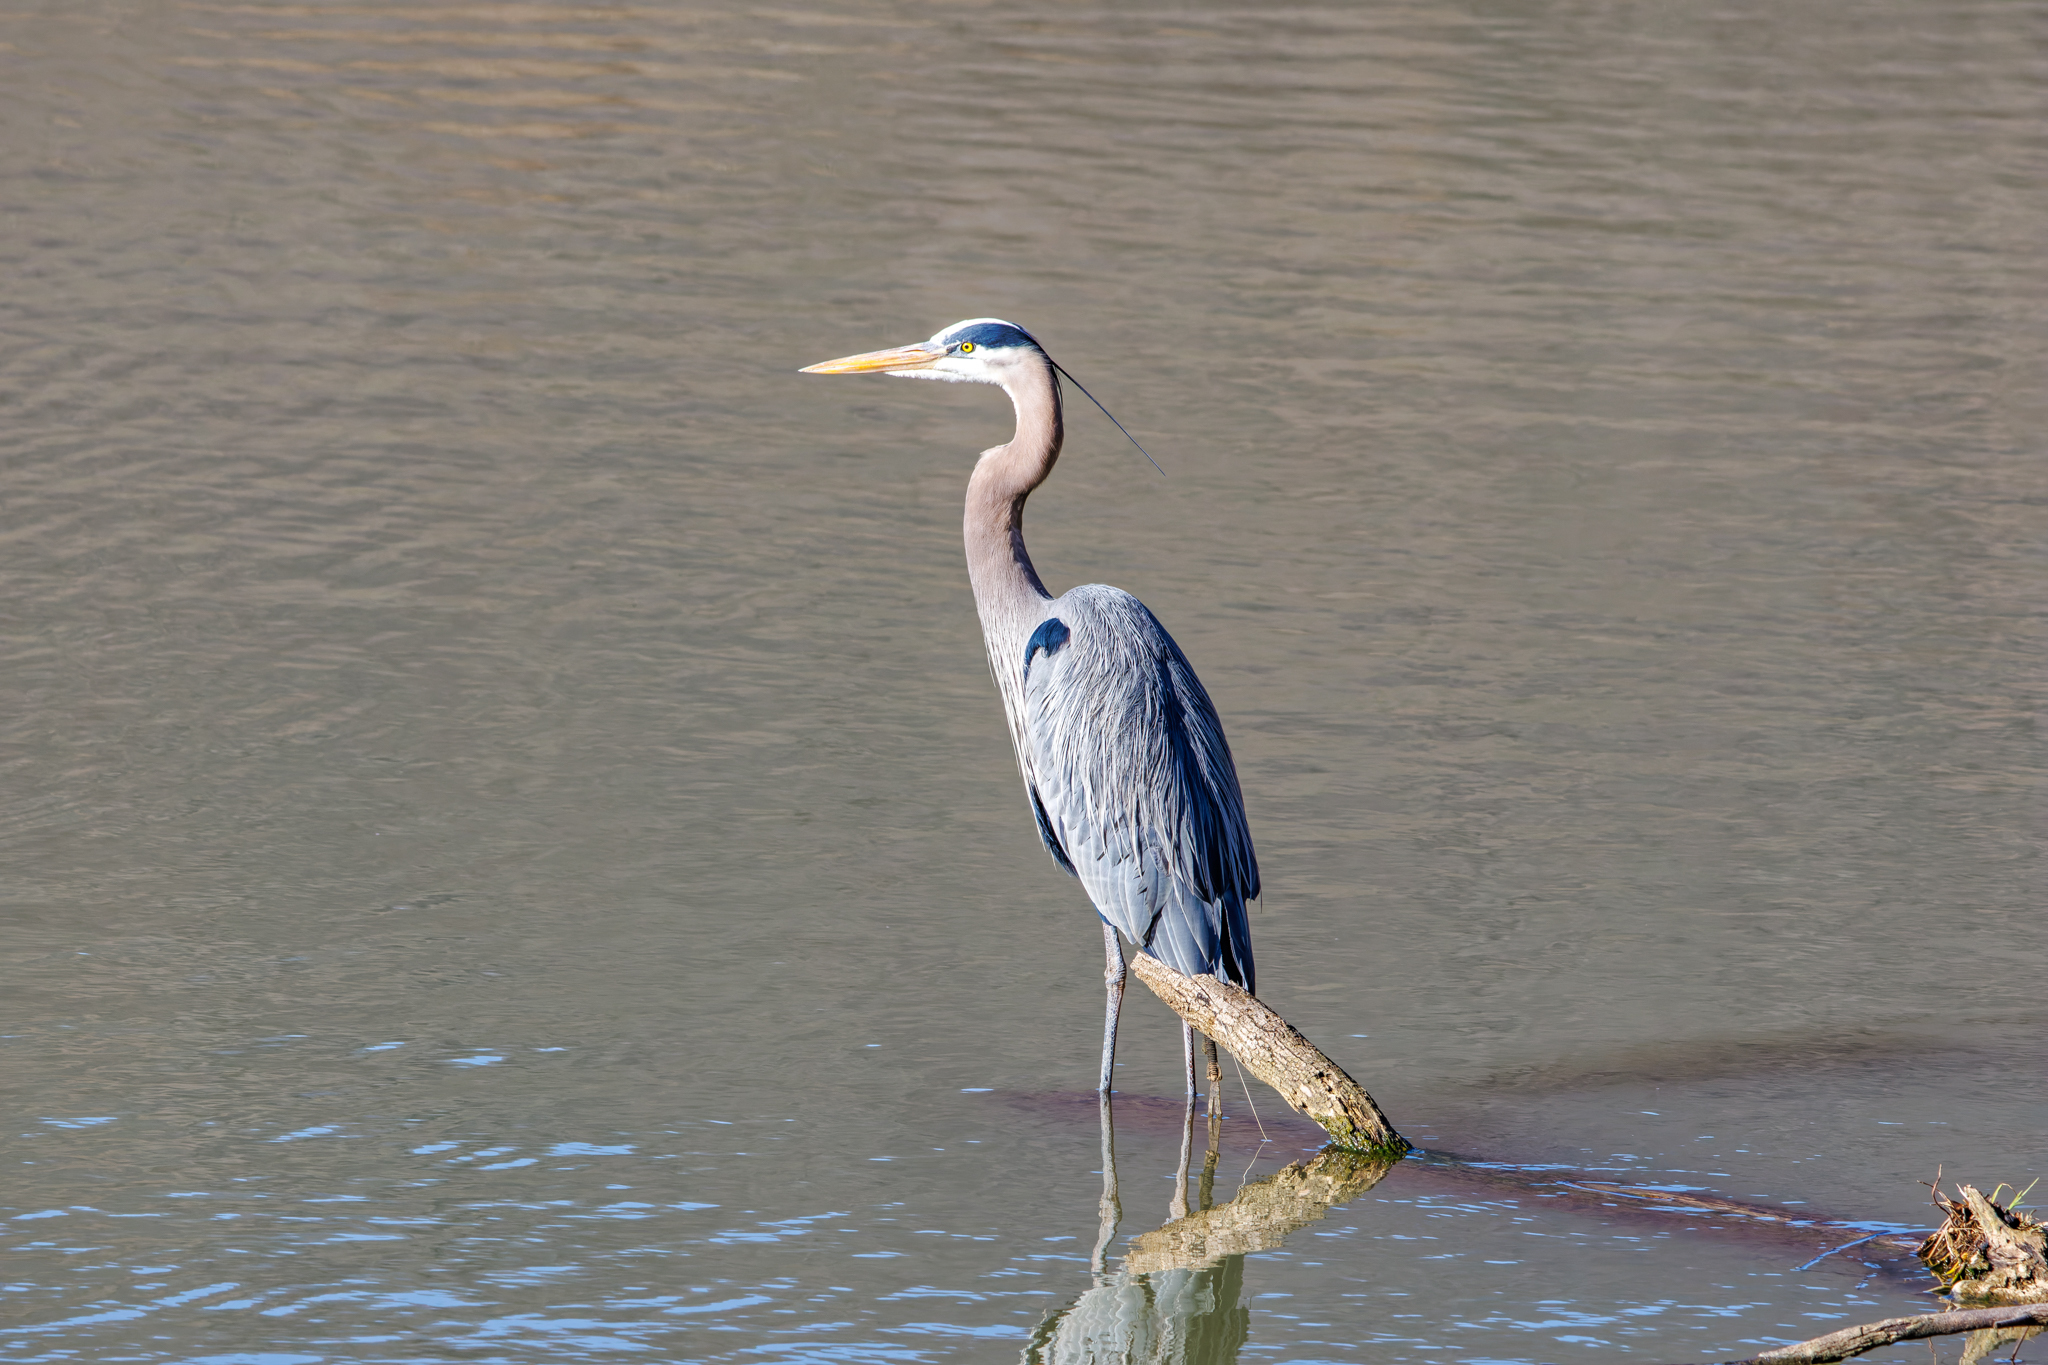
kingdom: Animalia
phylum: Chordata
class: Aves
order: Pelecaniformes
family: Ardeidae
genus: Ardea
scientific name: Ardea herodias
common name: Great blue heron
